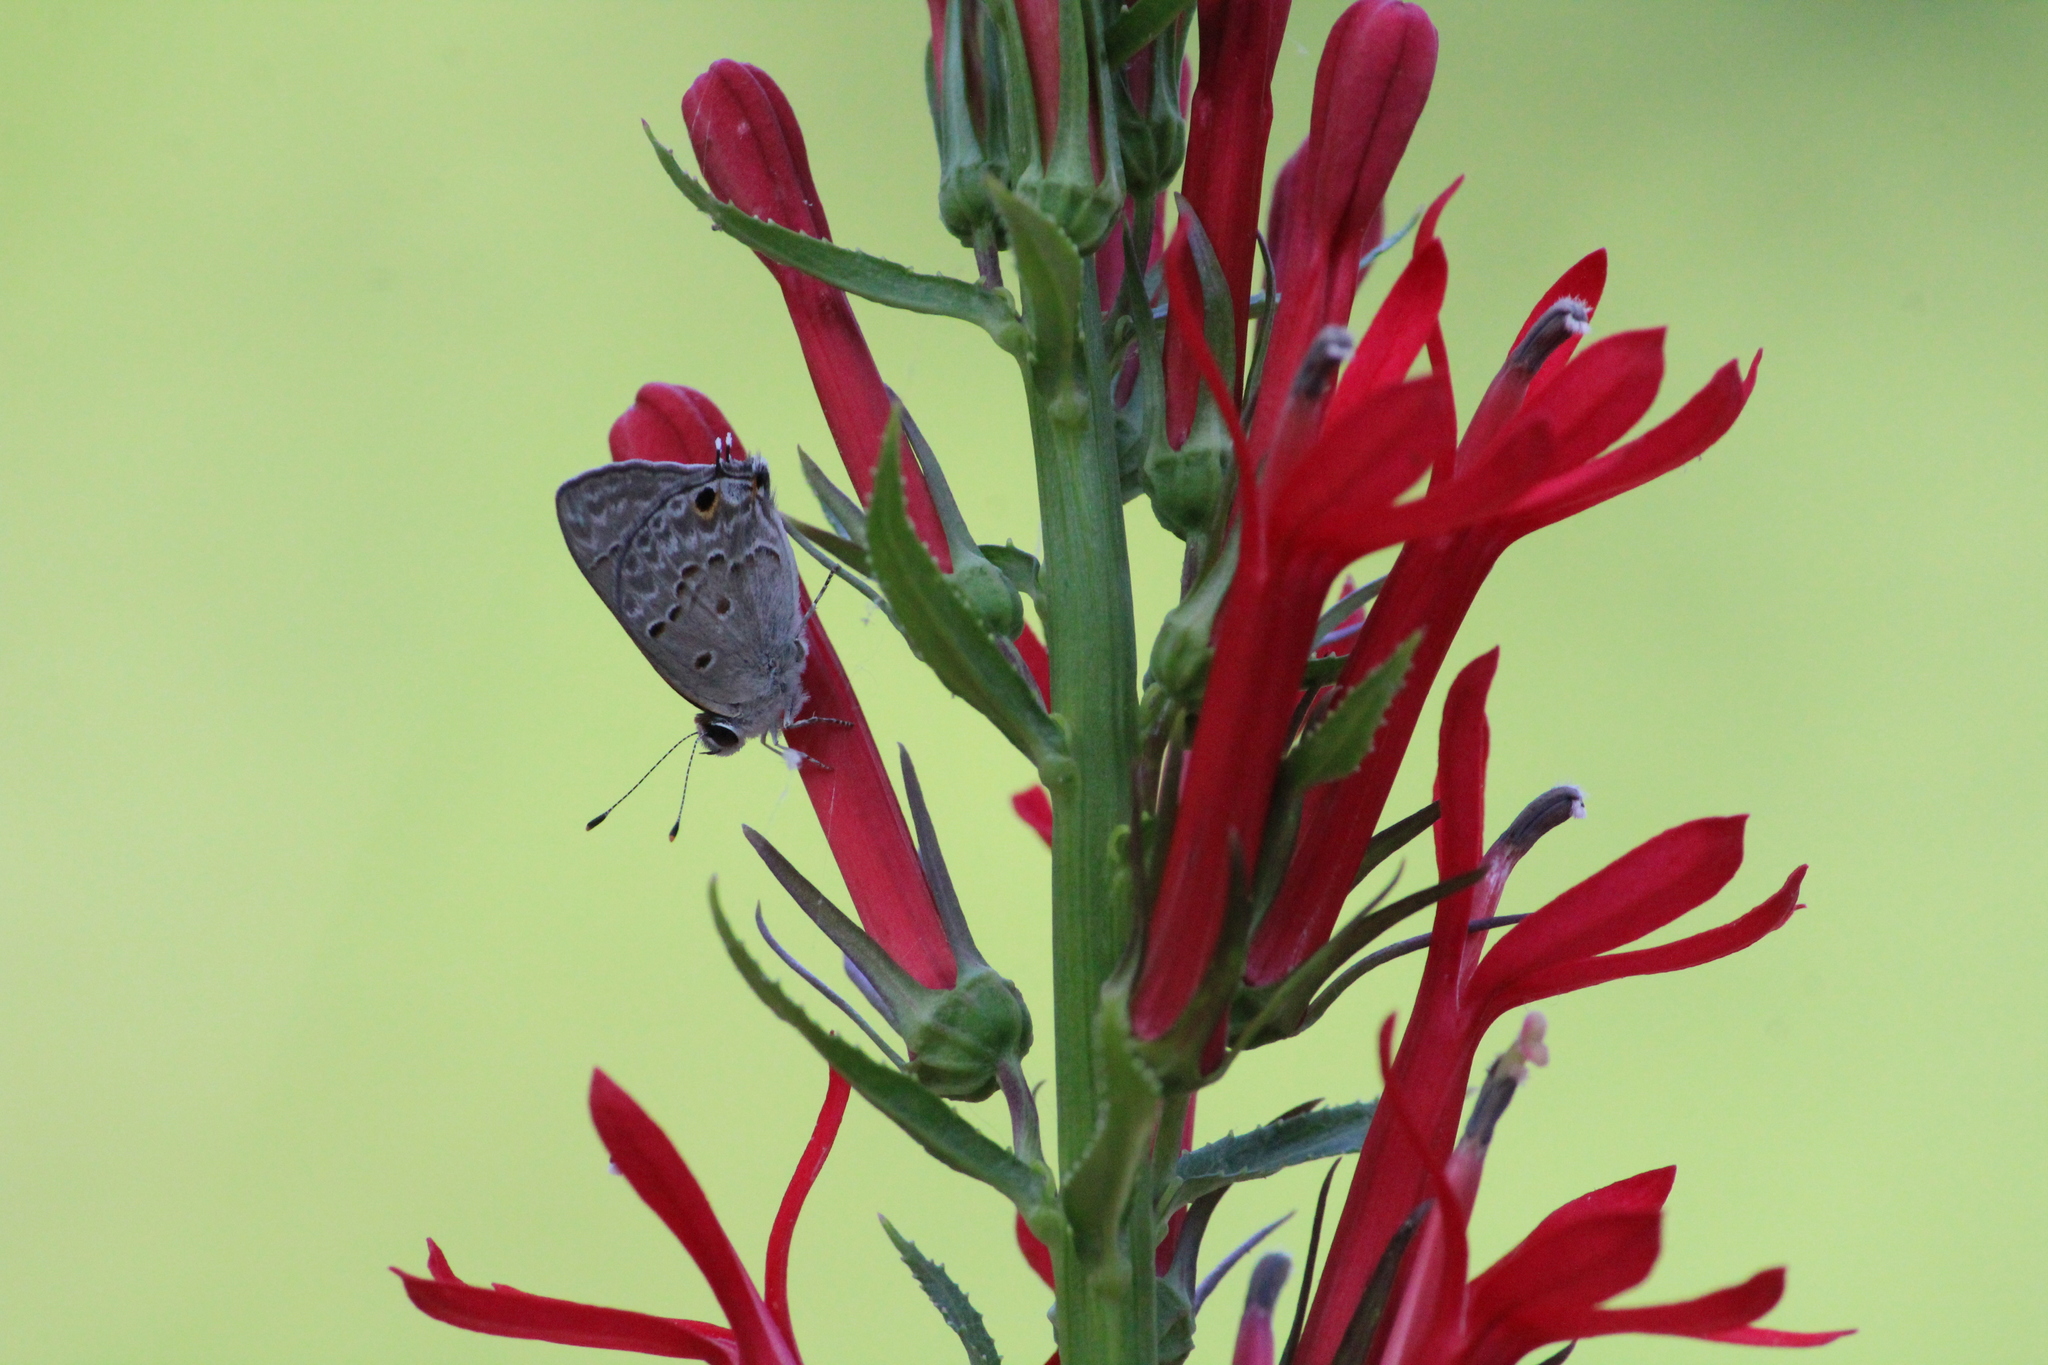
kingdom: Animalia
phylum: Arthropoda
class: Insecta
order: Lepidoptera
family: Lycaenidae
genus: Callicista
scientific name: Callicista columella
